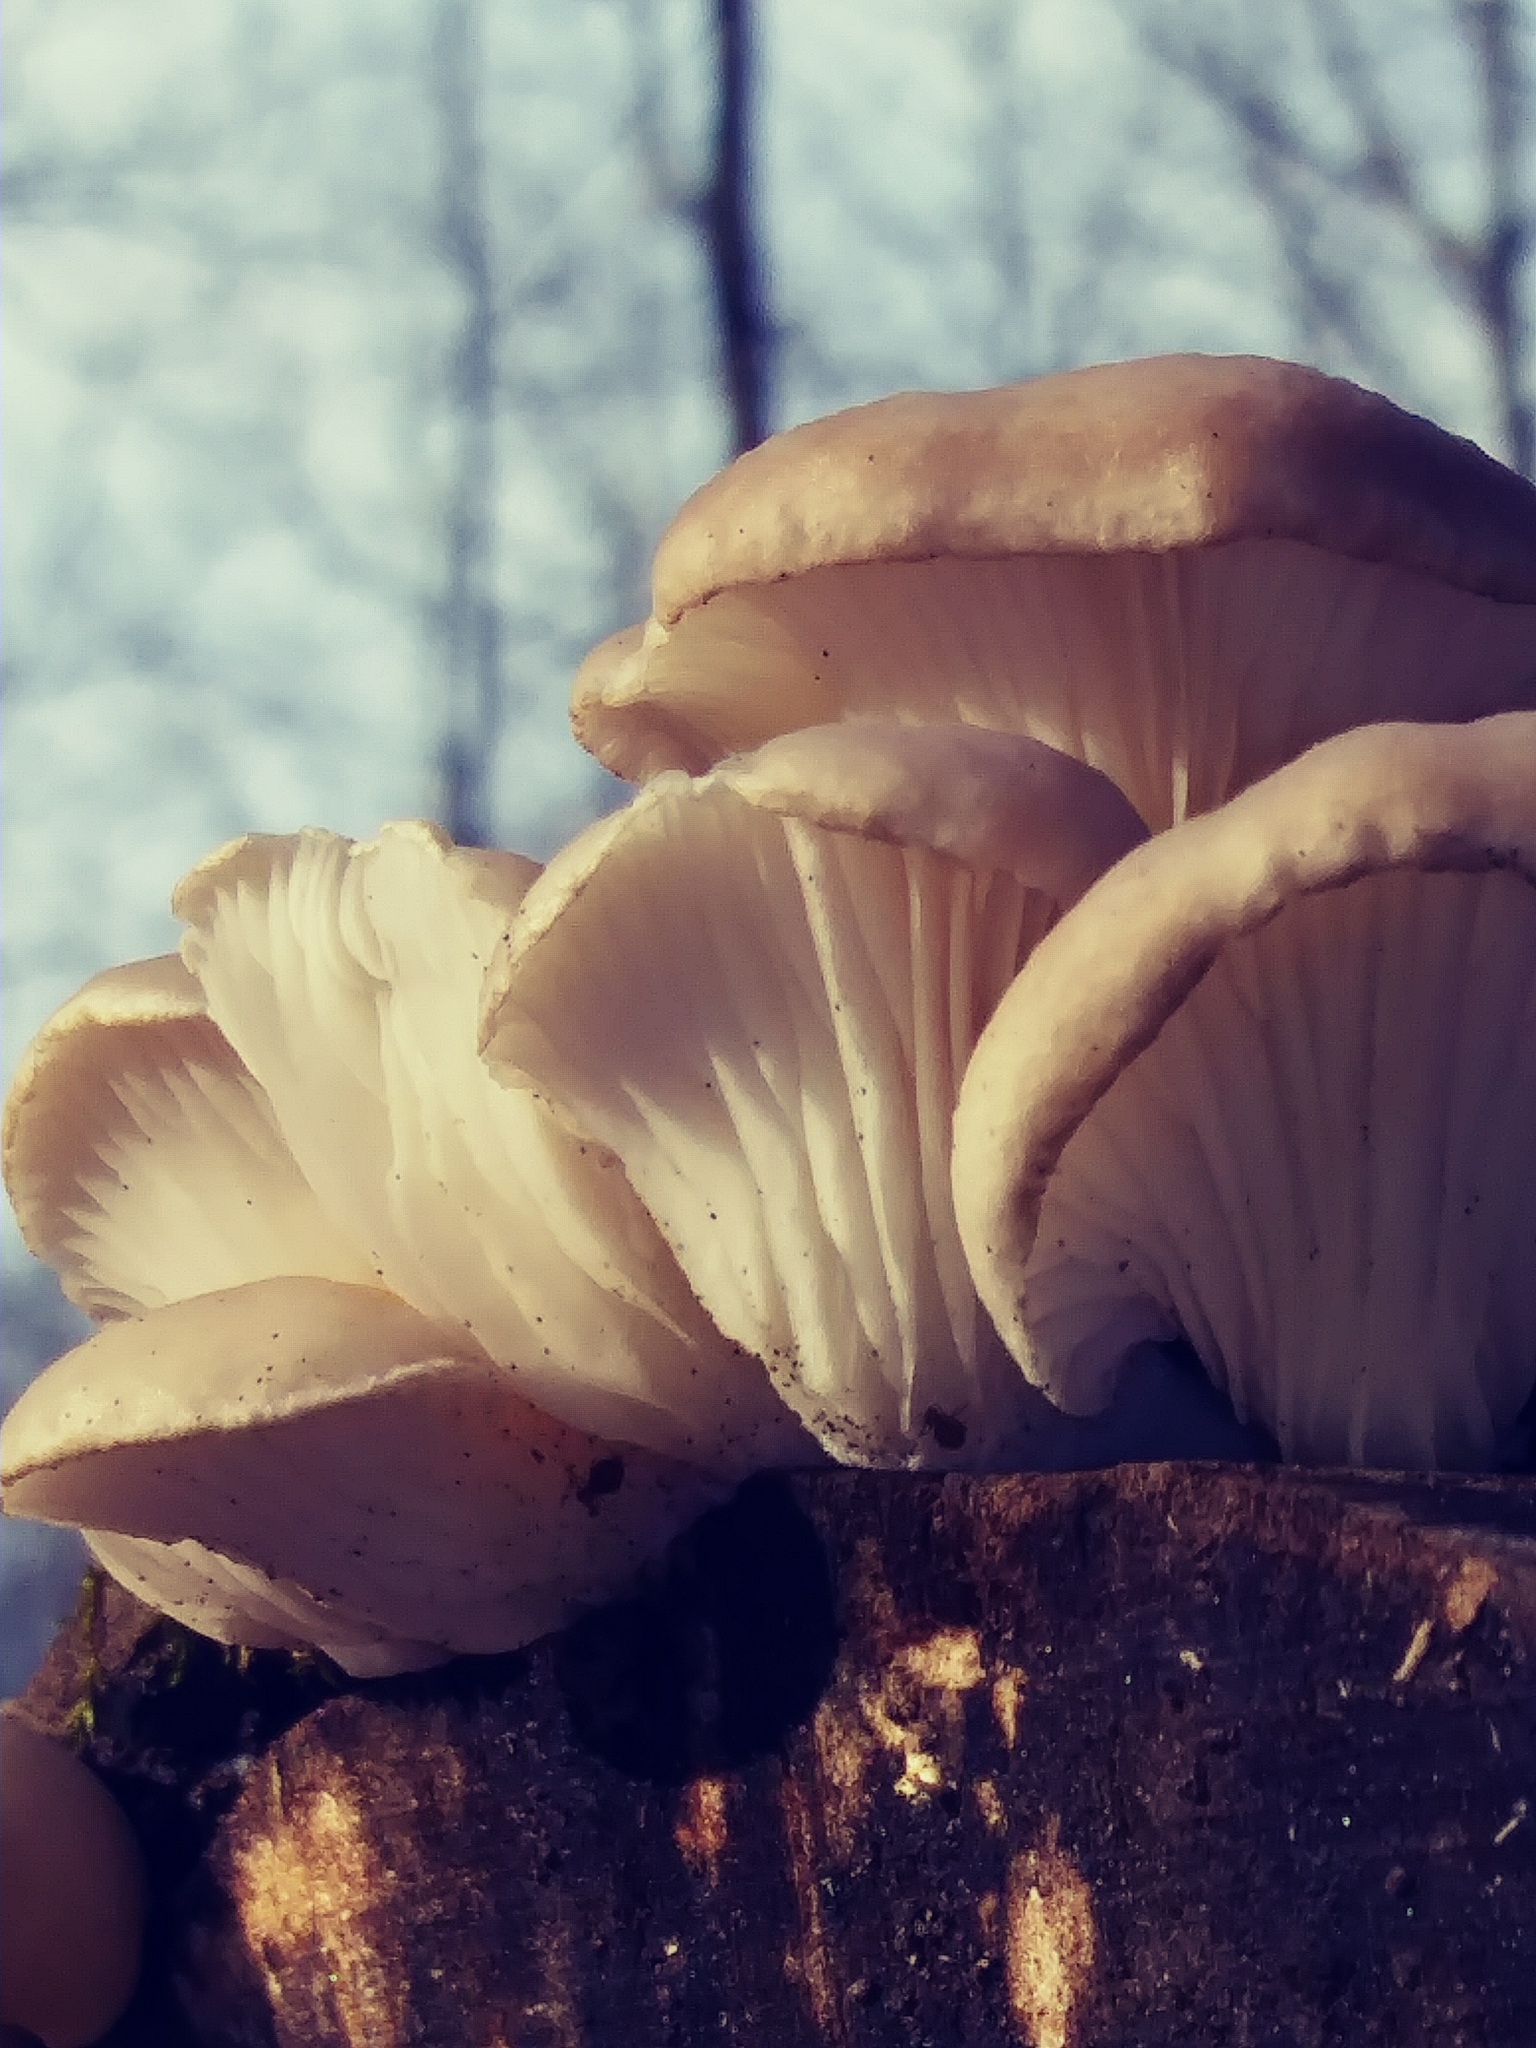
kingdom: Fungi
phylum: Basidiomycota
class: Agaricomycetes
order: Agaricales
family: Pleurotaceae
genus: Pleurotus
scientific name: Pleurotus ostreatus
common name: Oyster mushroom
